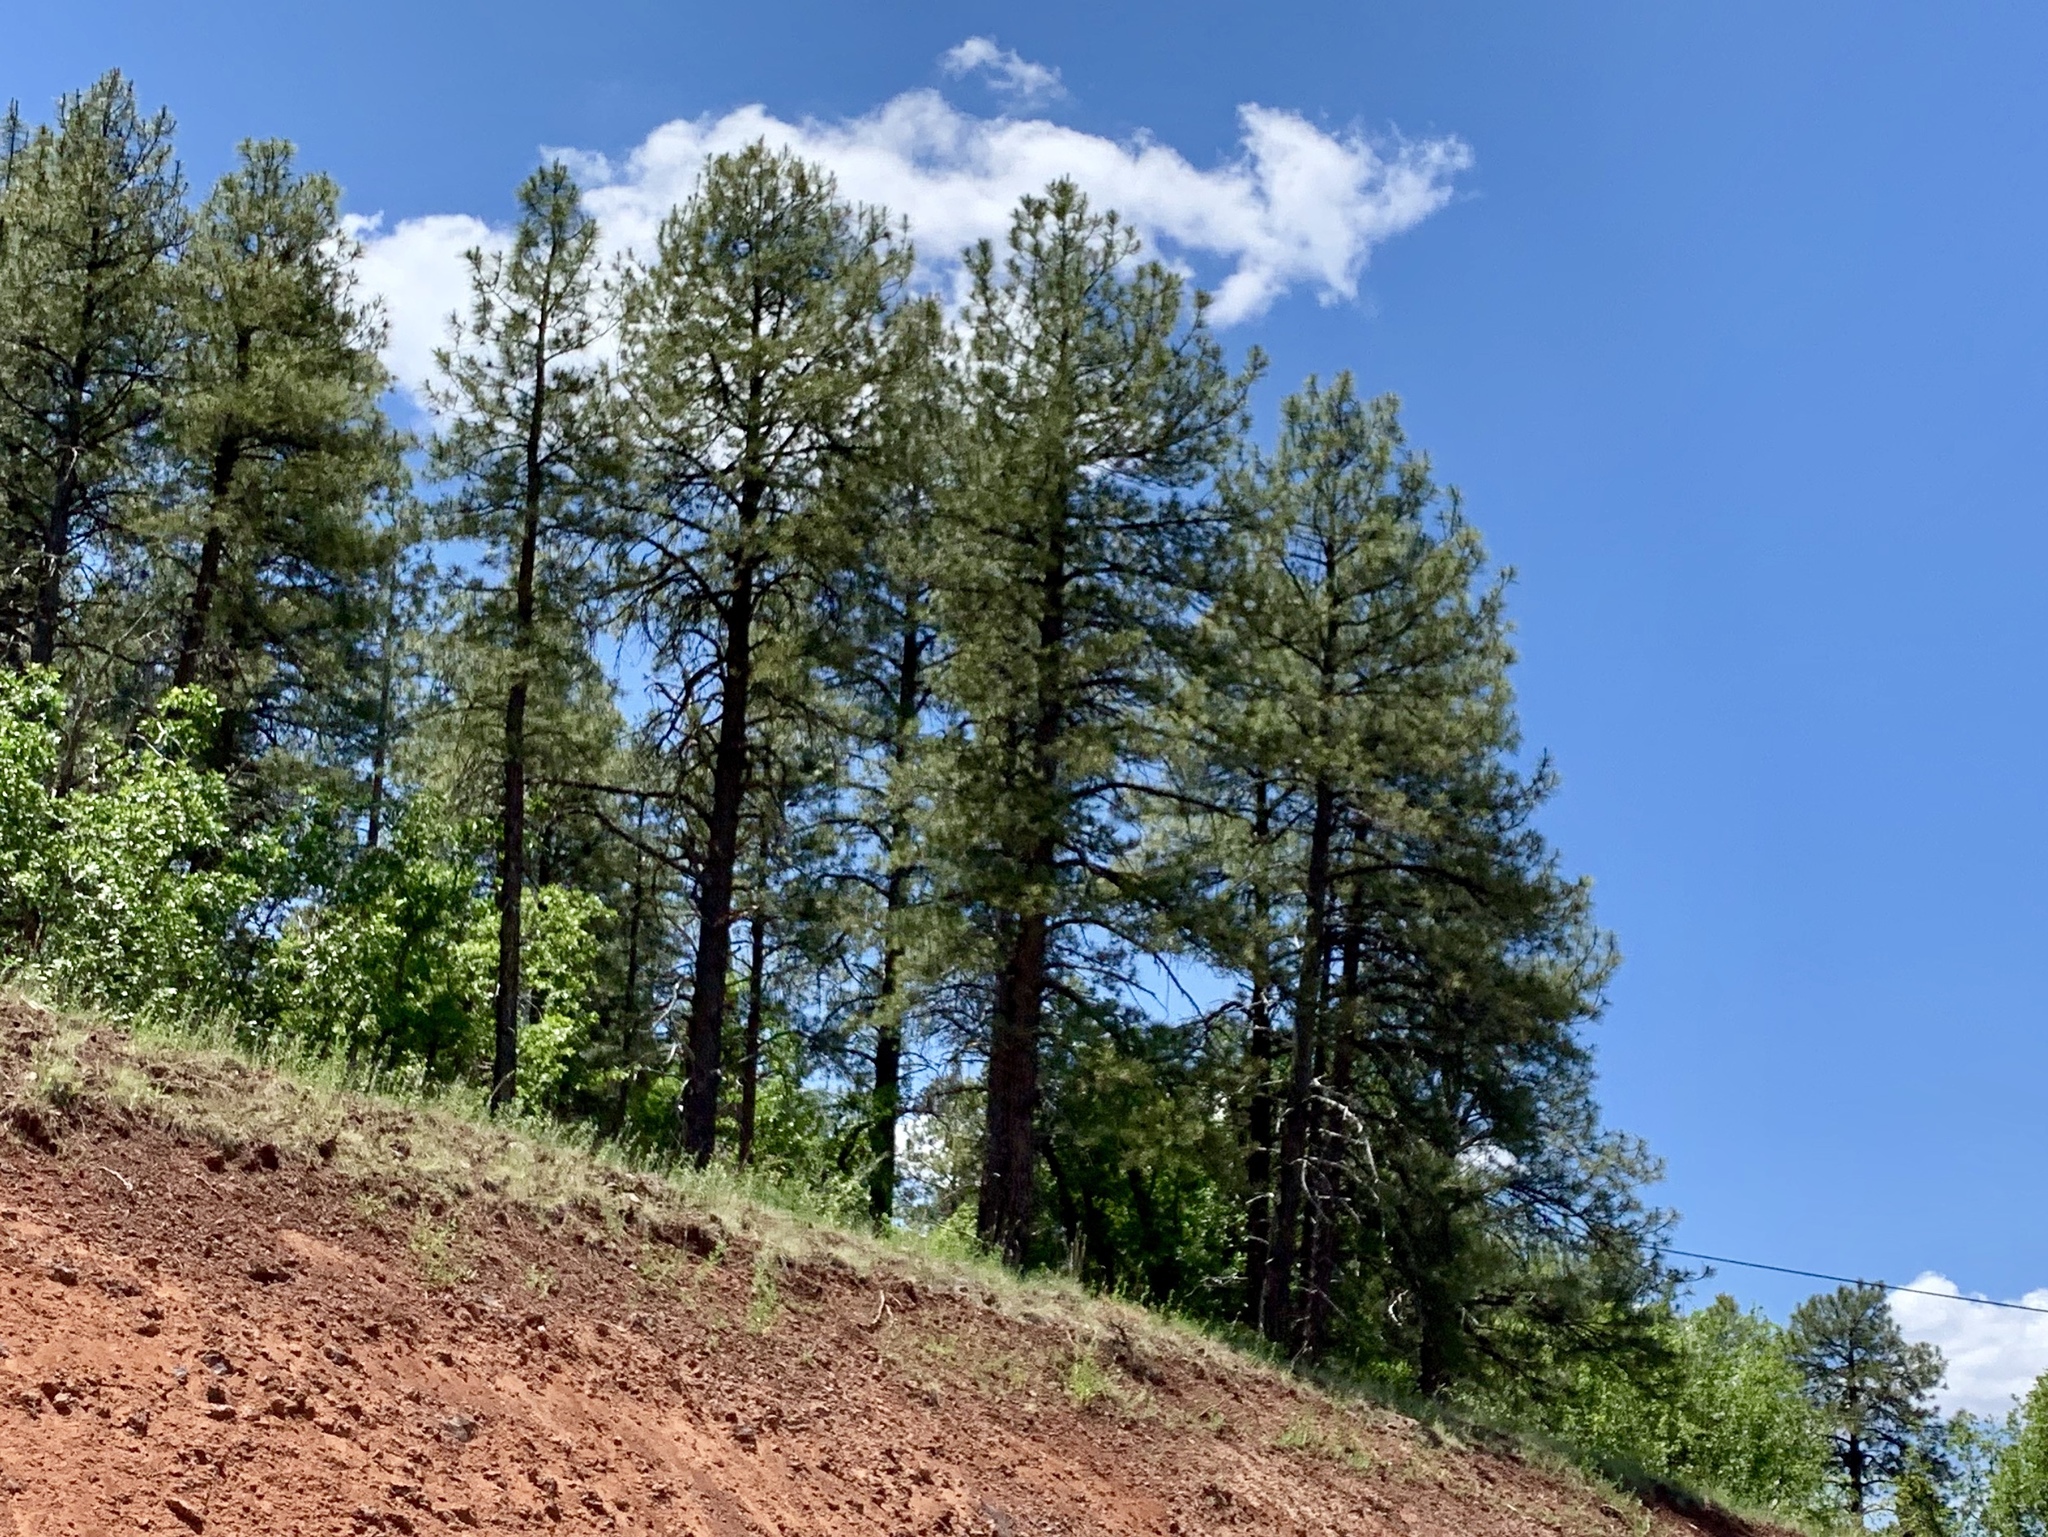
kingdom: Plantae
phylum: Tracheophyta
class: Pinopsida
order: Pinales
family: Pinaceae
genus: Pinus
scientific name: Pinus ponderosa
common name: Western yellow-pine
